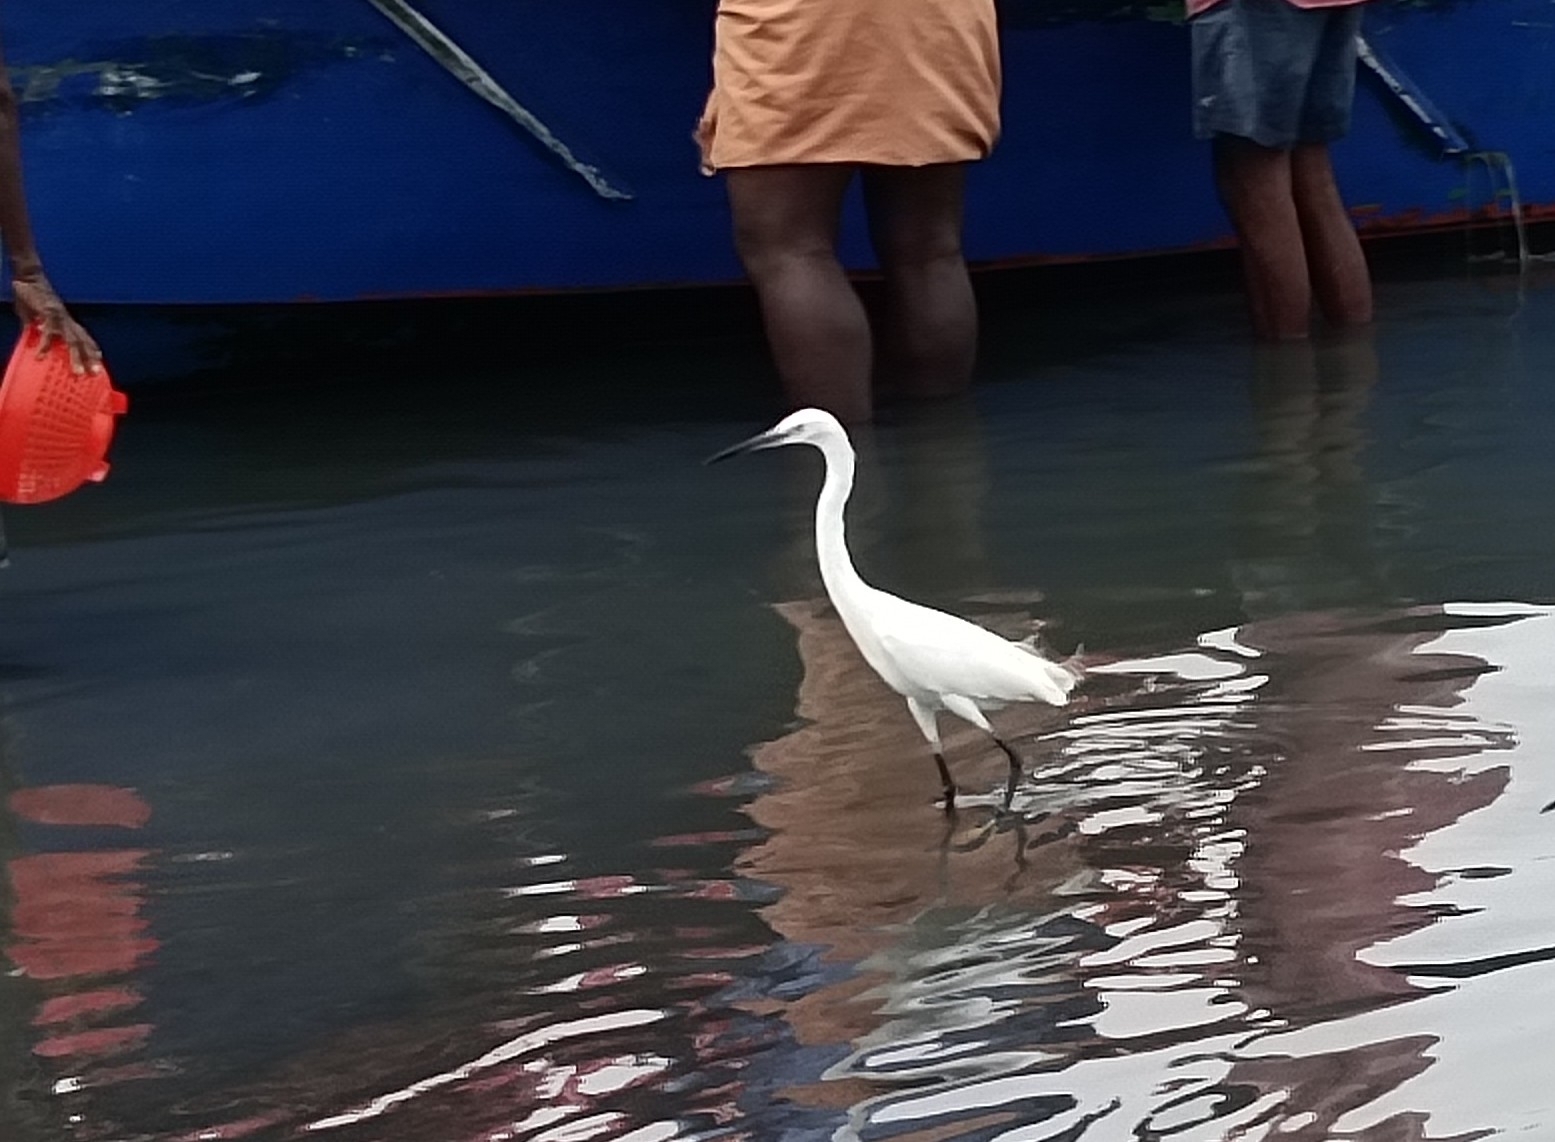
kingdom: Animalia
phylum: Chordata
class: Aves
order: Pelecaniformes
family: Ardeidae
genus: Egretta
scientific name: Egretta garzetta
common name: Little egret
